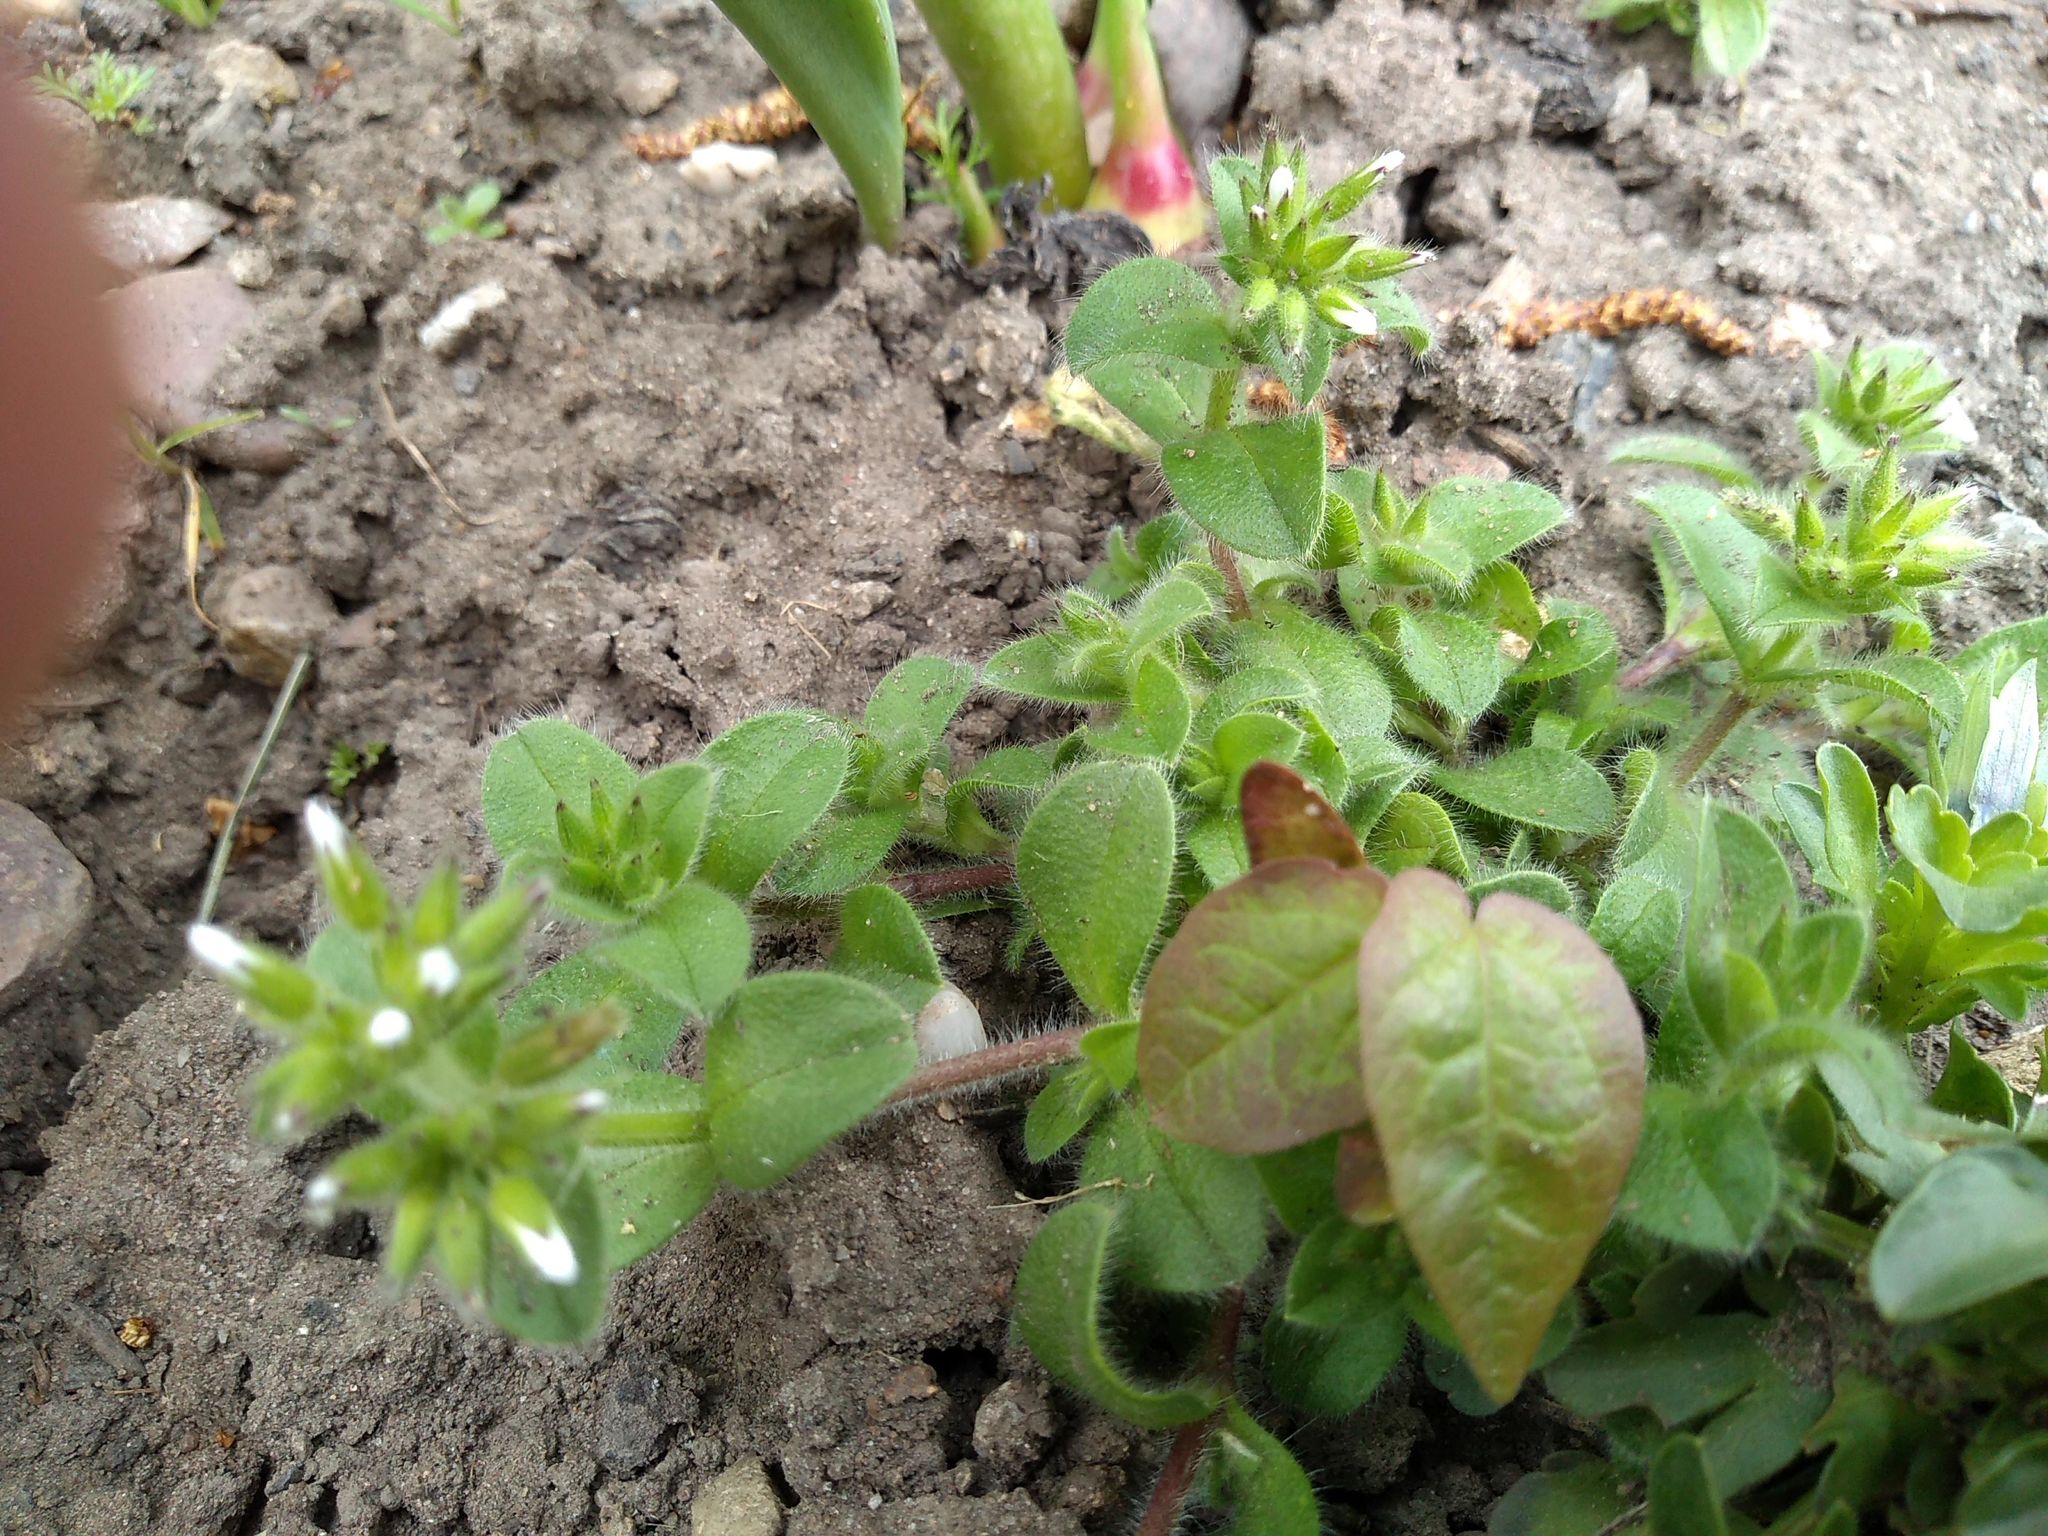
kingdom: Plantae
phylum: Tracheophyta
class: Magnoliopsida
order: Caryophyllales
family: Caryophyllaceae
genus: Cerastium
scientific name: Cerastium glomeratum
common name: Sticky chickweed
